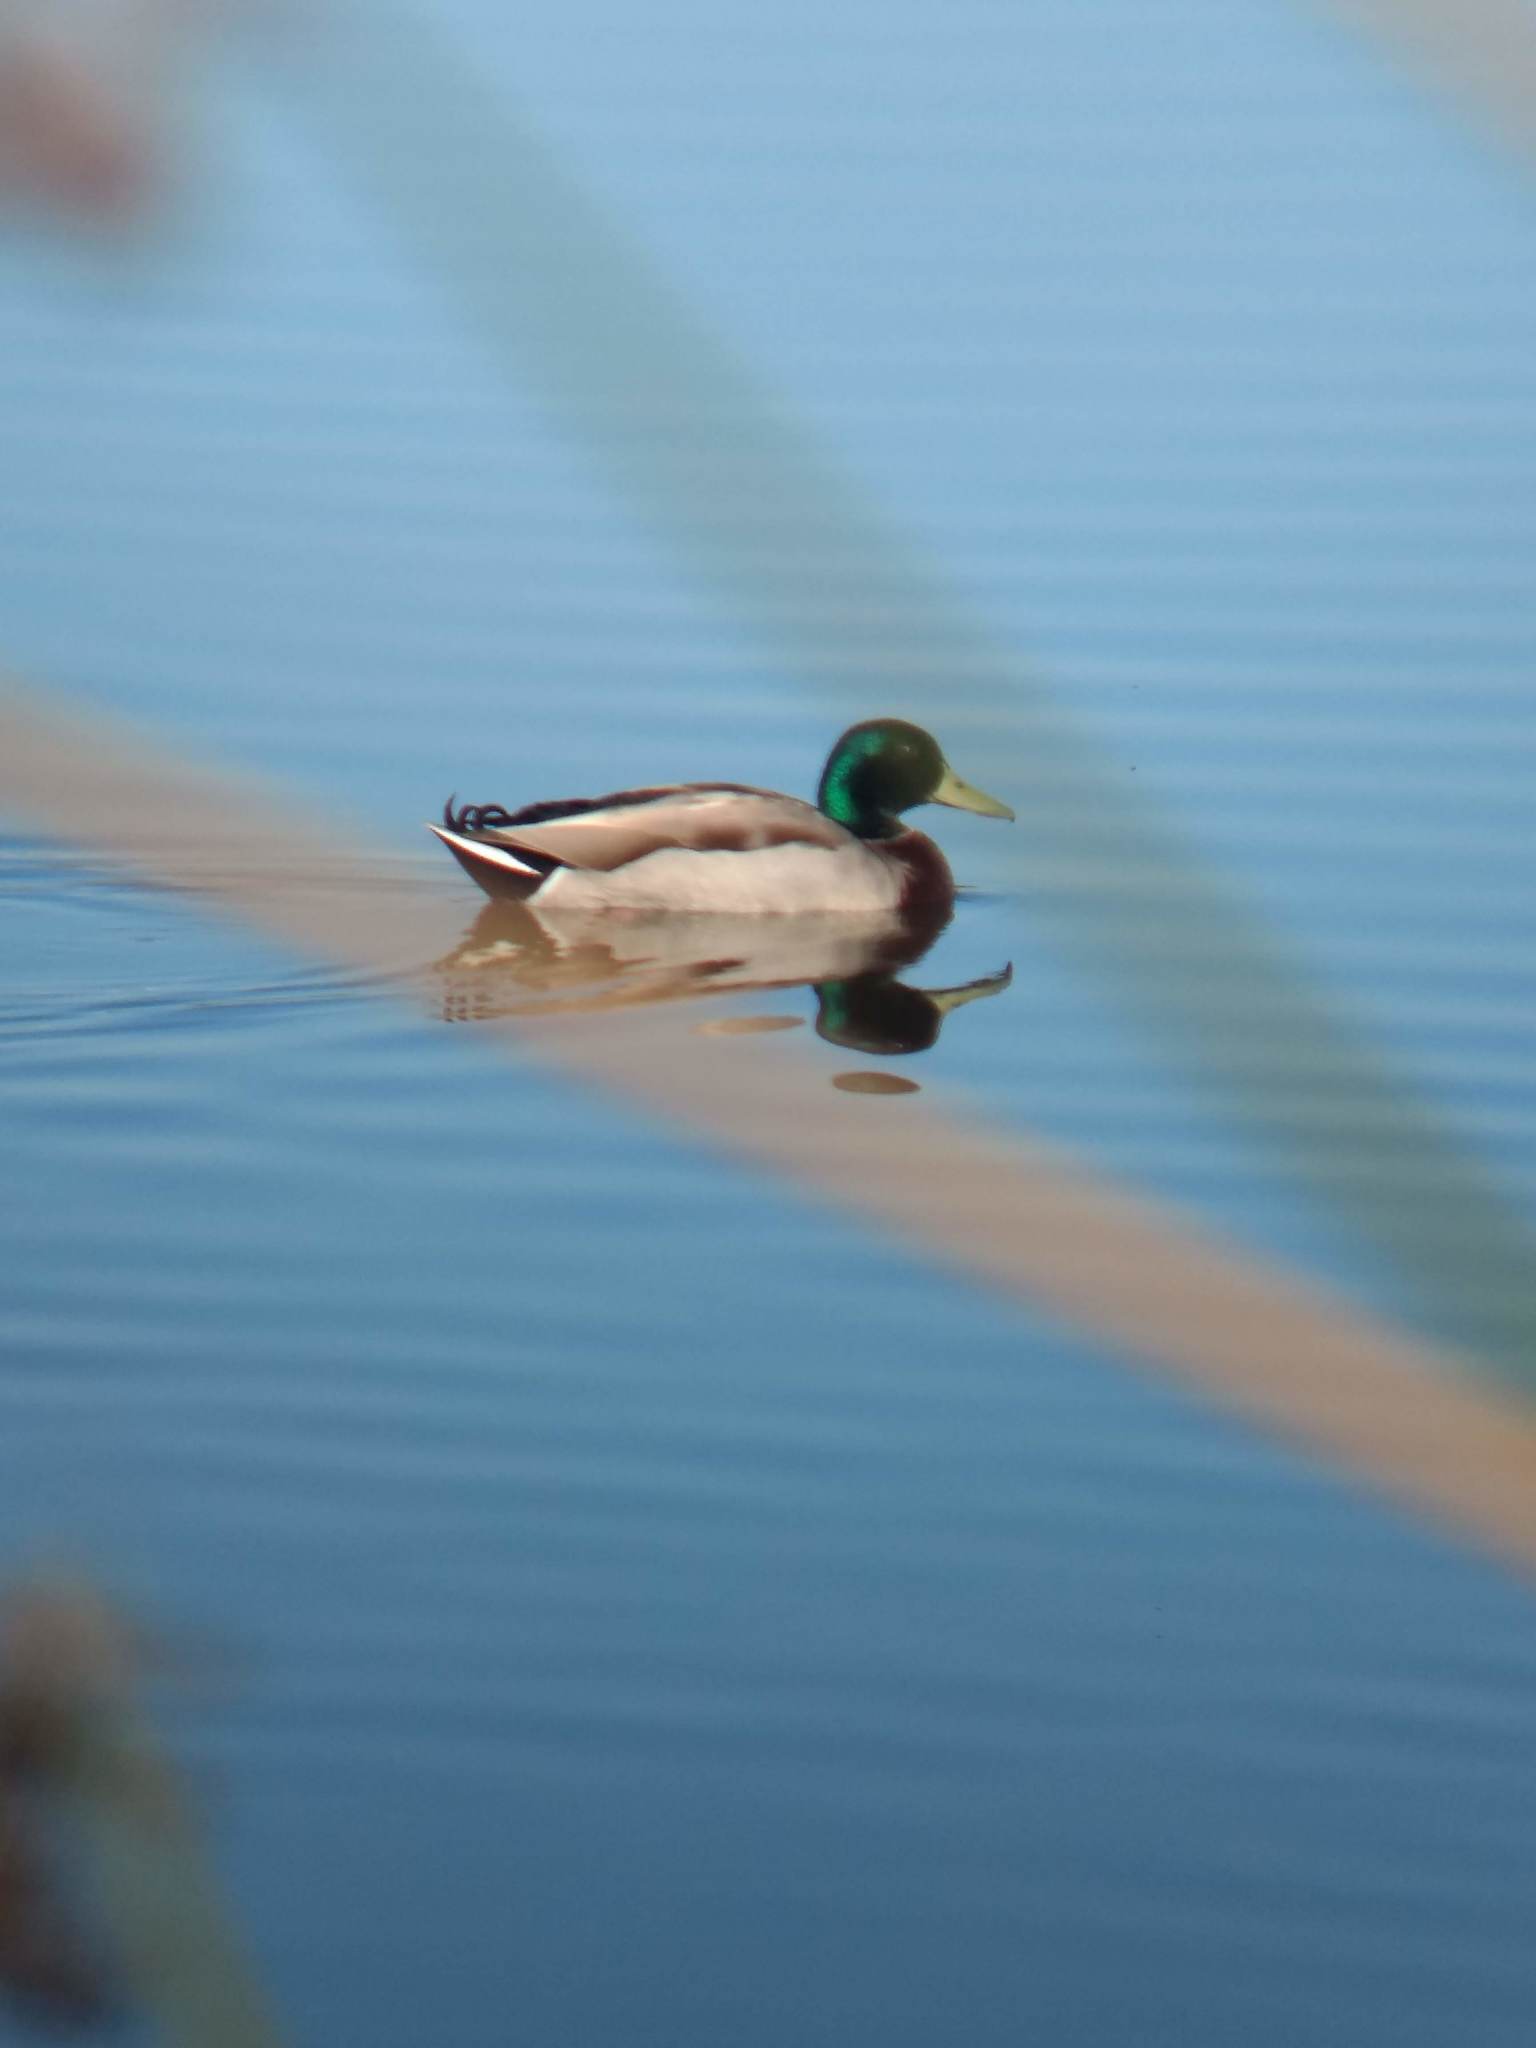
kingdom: Animalia
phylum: Chordata
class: Aves
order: Anseriformes
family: Anatidae
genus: Anas
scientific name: Anas platyrhynchos
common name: Mallard
